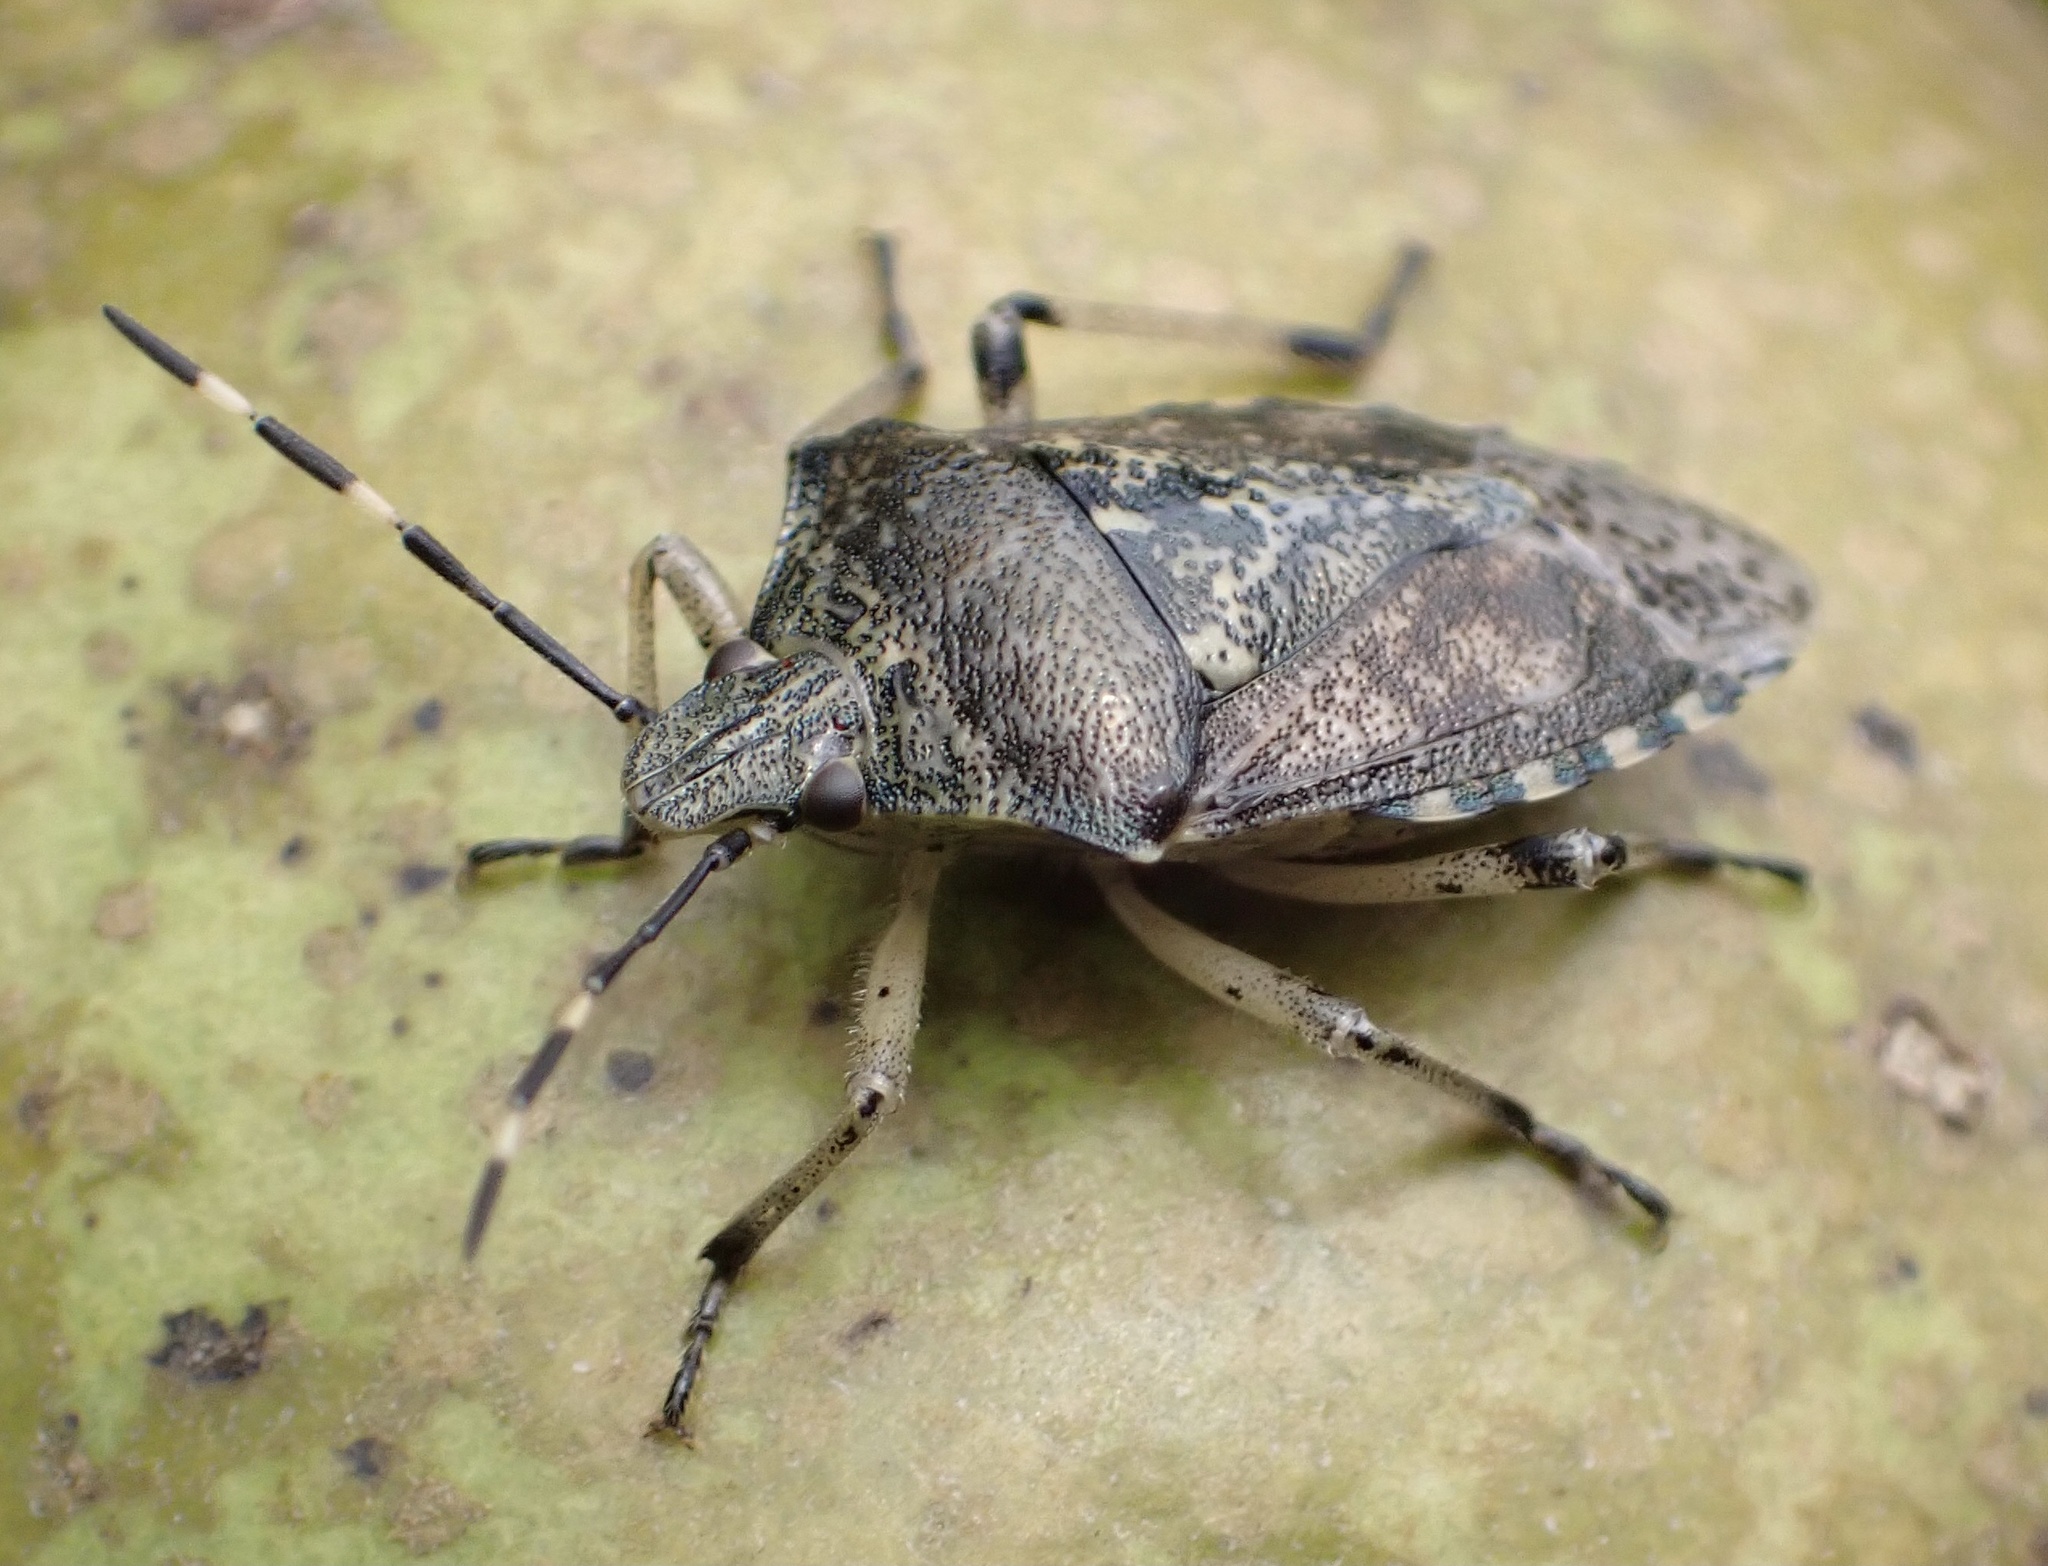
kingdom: Animalia
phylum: Arthropoda
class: Insecta
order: Hemiptera
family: Pentatomidae
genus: Rhaphigaster
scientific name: Rhaphigaster nebulosa
